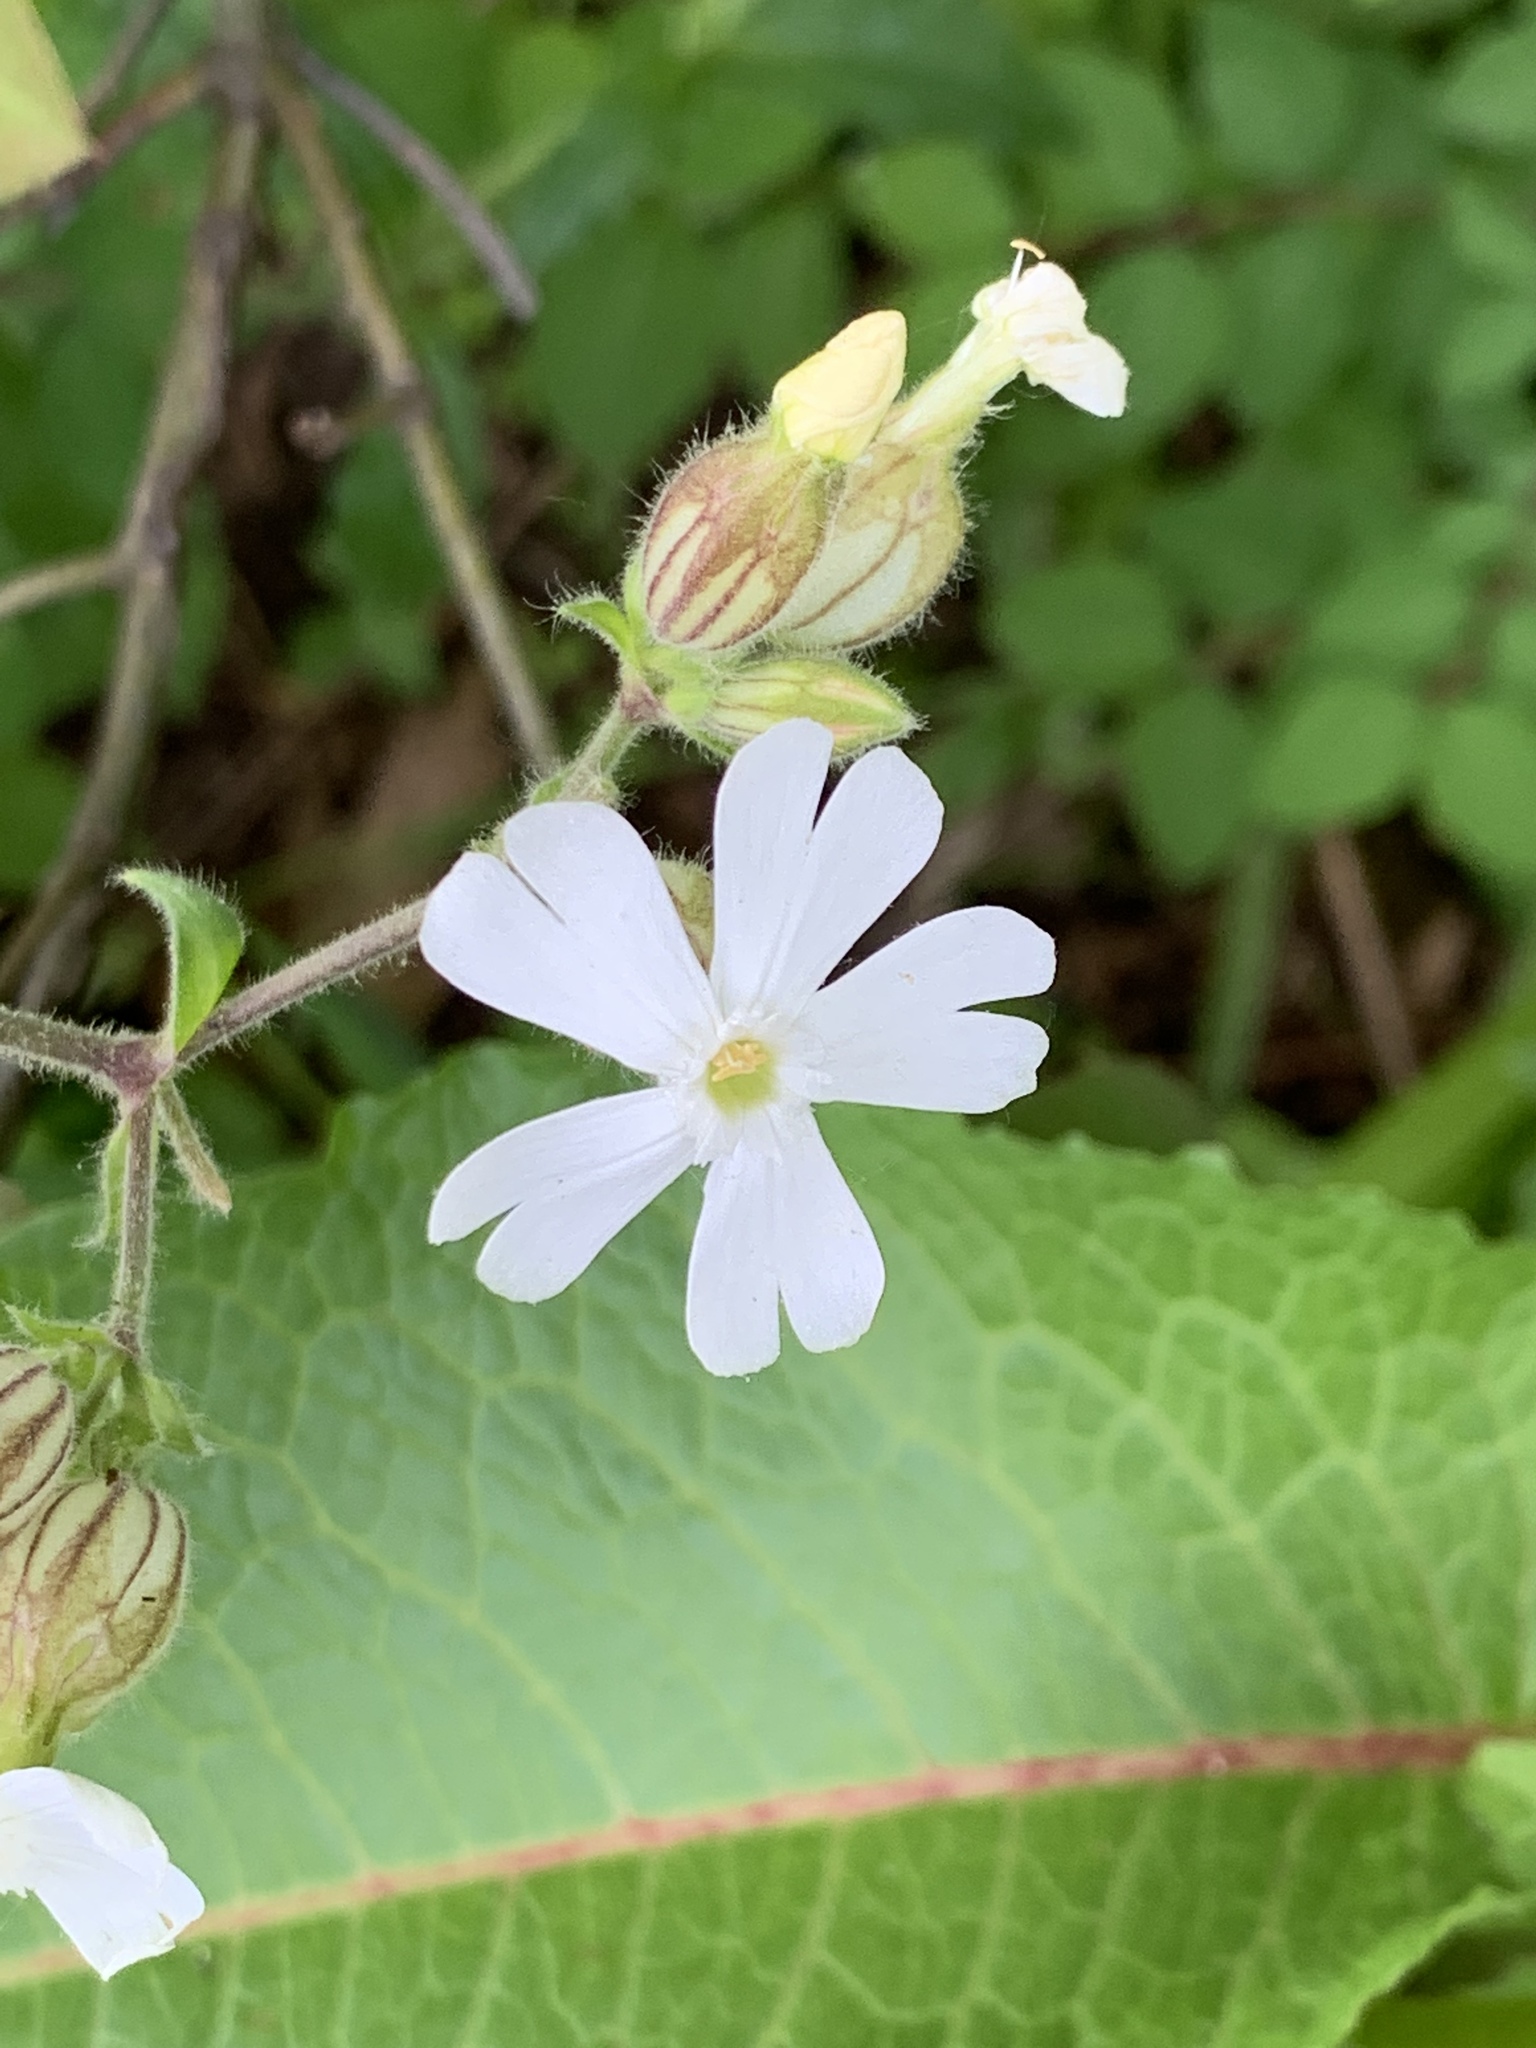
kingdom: Plantae
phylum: Tracheophyta
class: Magnoliopsida
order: Caryophyllales
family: Caryophyllaceae
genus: Silene
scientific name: Silene latifolia
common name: White campion
